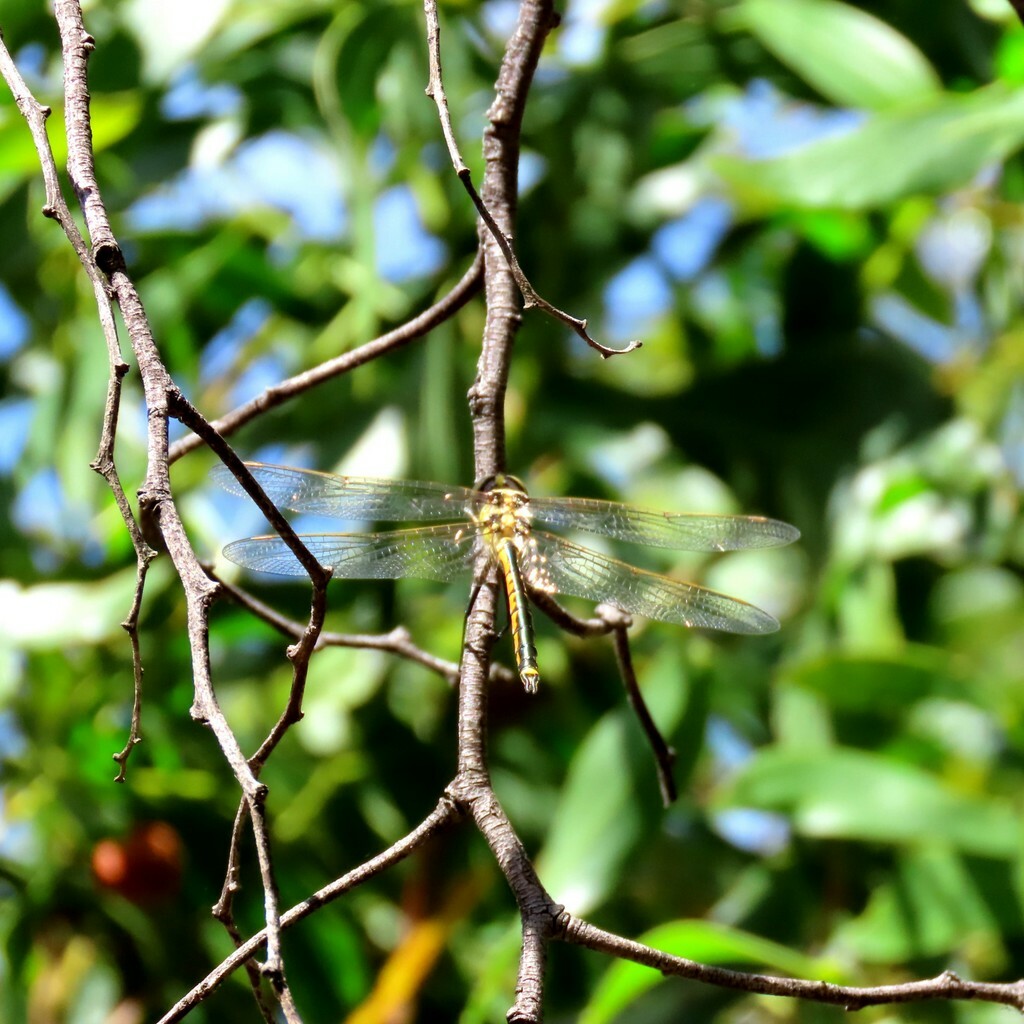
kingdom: Animalia
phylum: Arthropoda
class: Insecta
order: Odonata
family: Corduliidae
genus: Hemicordulia
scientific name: Hemicordulia tau
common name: Tau emerald
